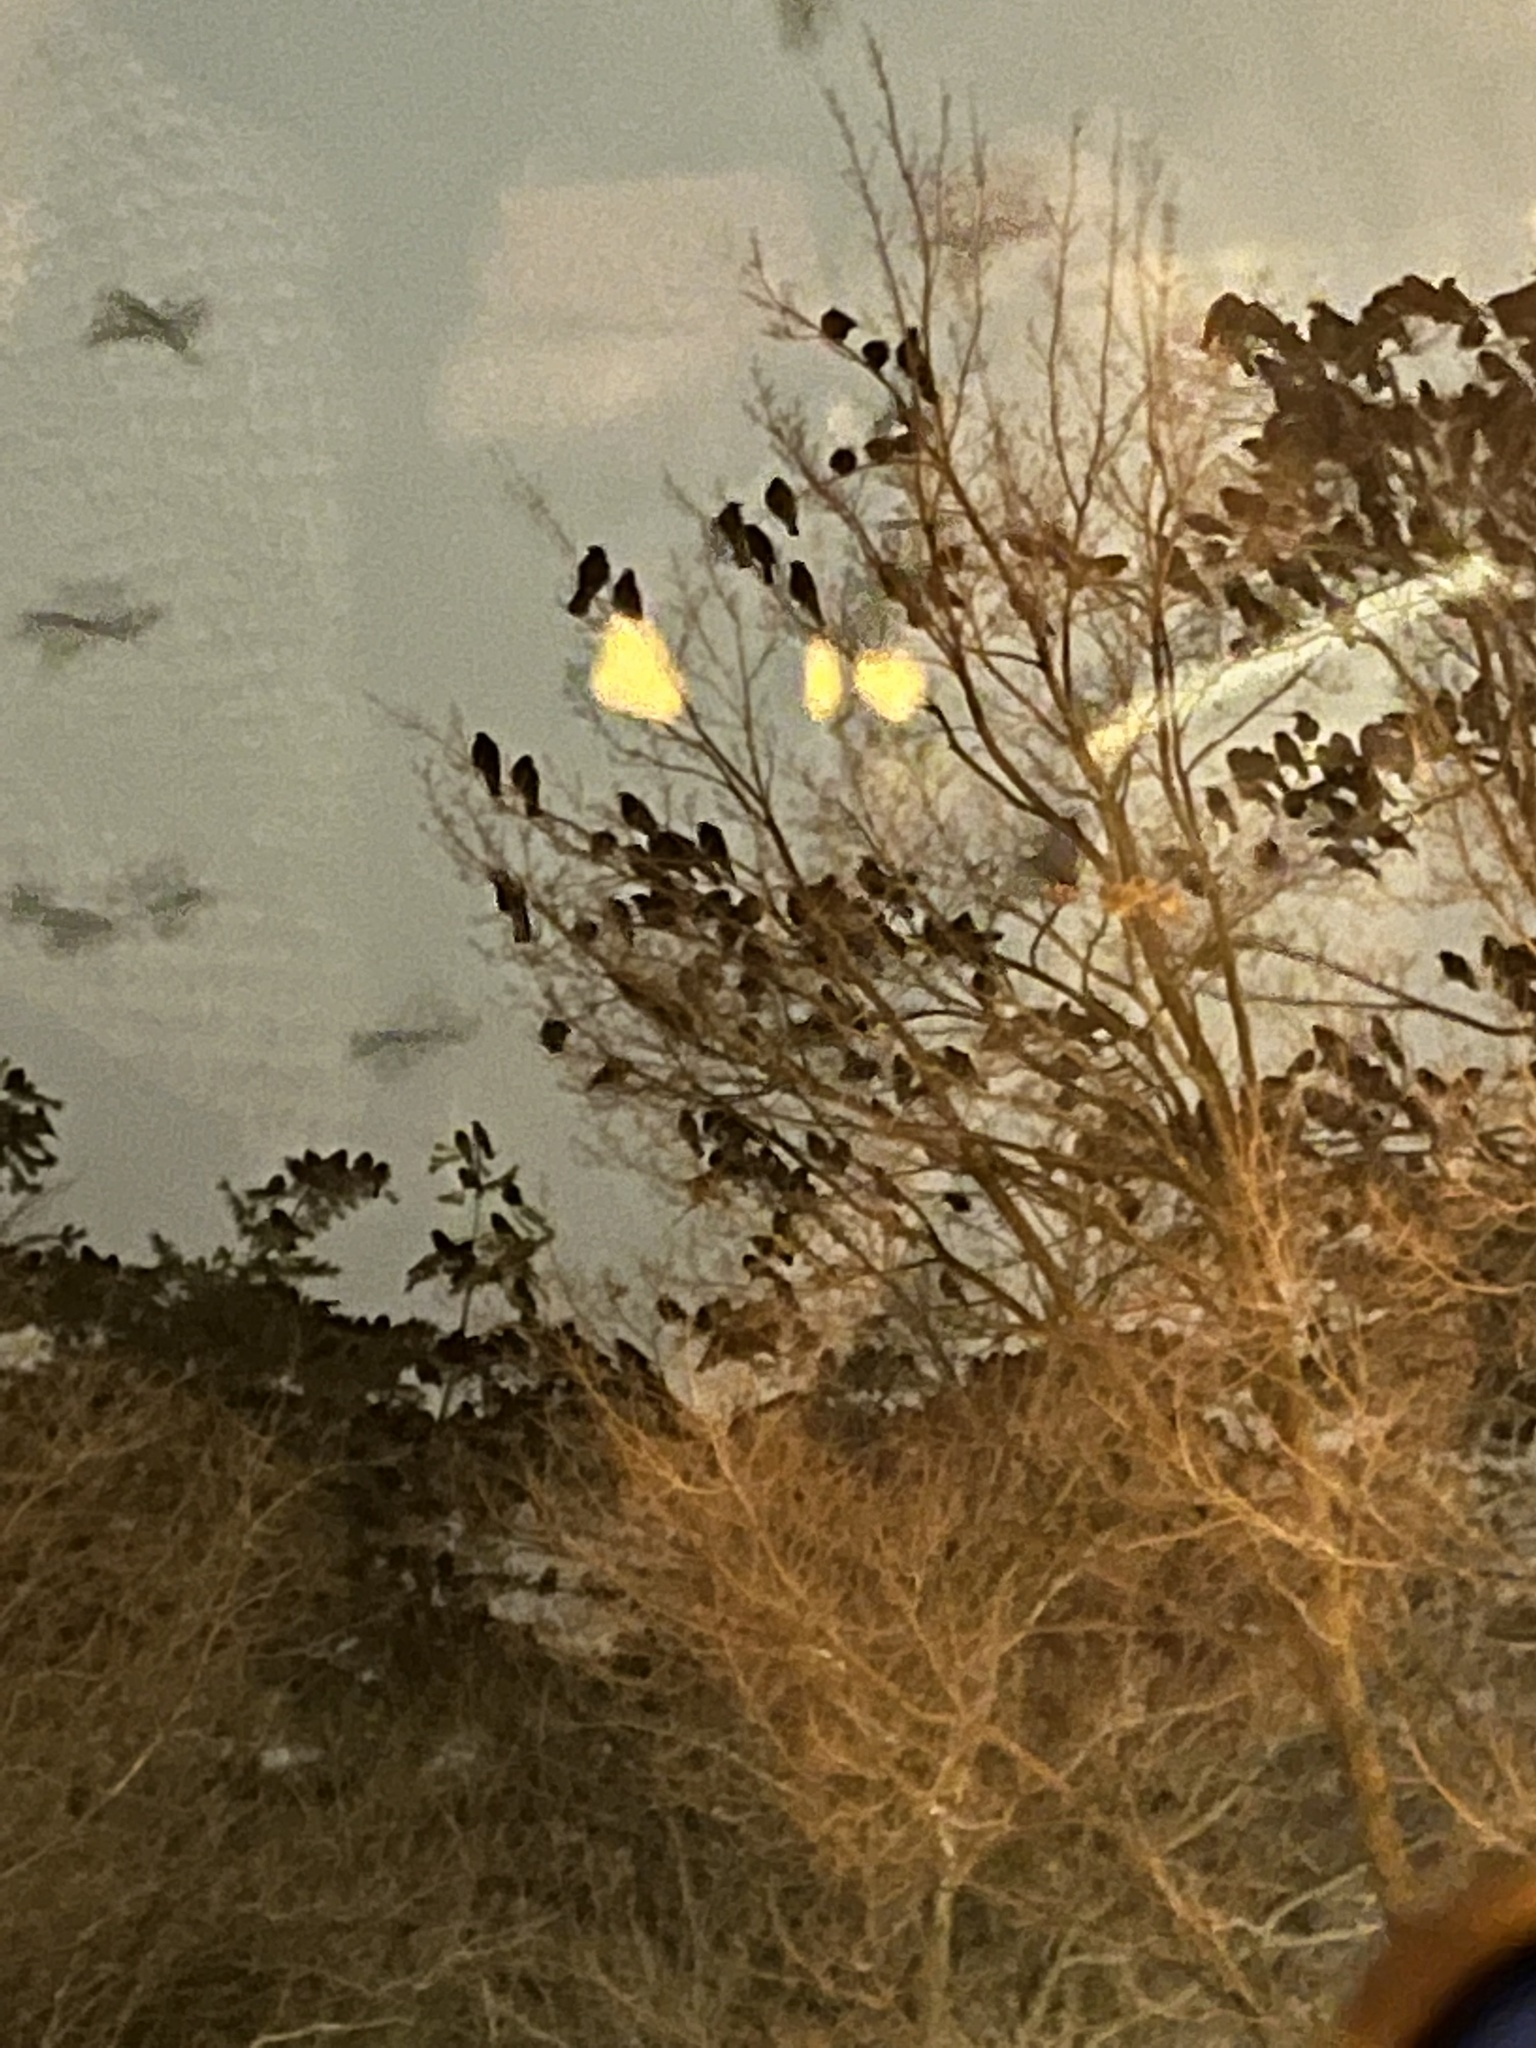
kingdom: Animalia
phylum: Chordata
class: Aves
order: Passeriformes
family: Corvidae
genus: Corvus
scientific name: Corvus brachyrhynchos
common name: American crow
